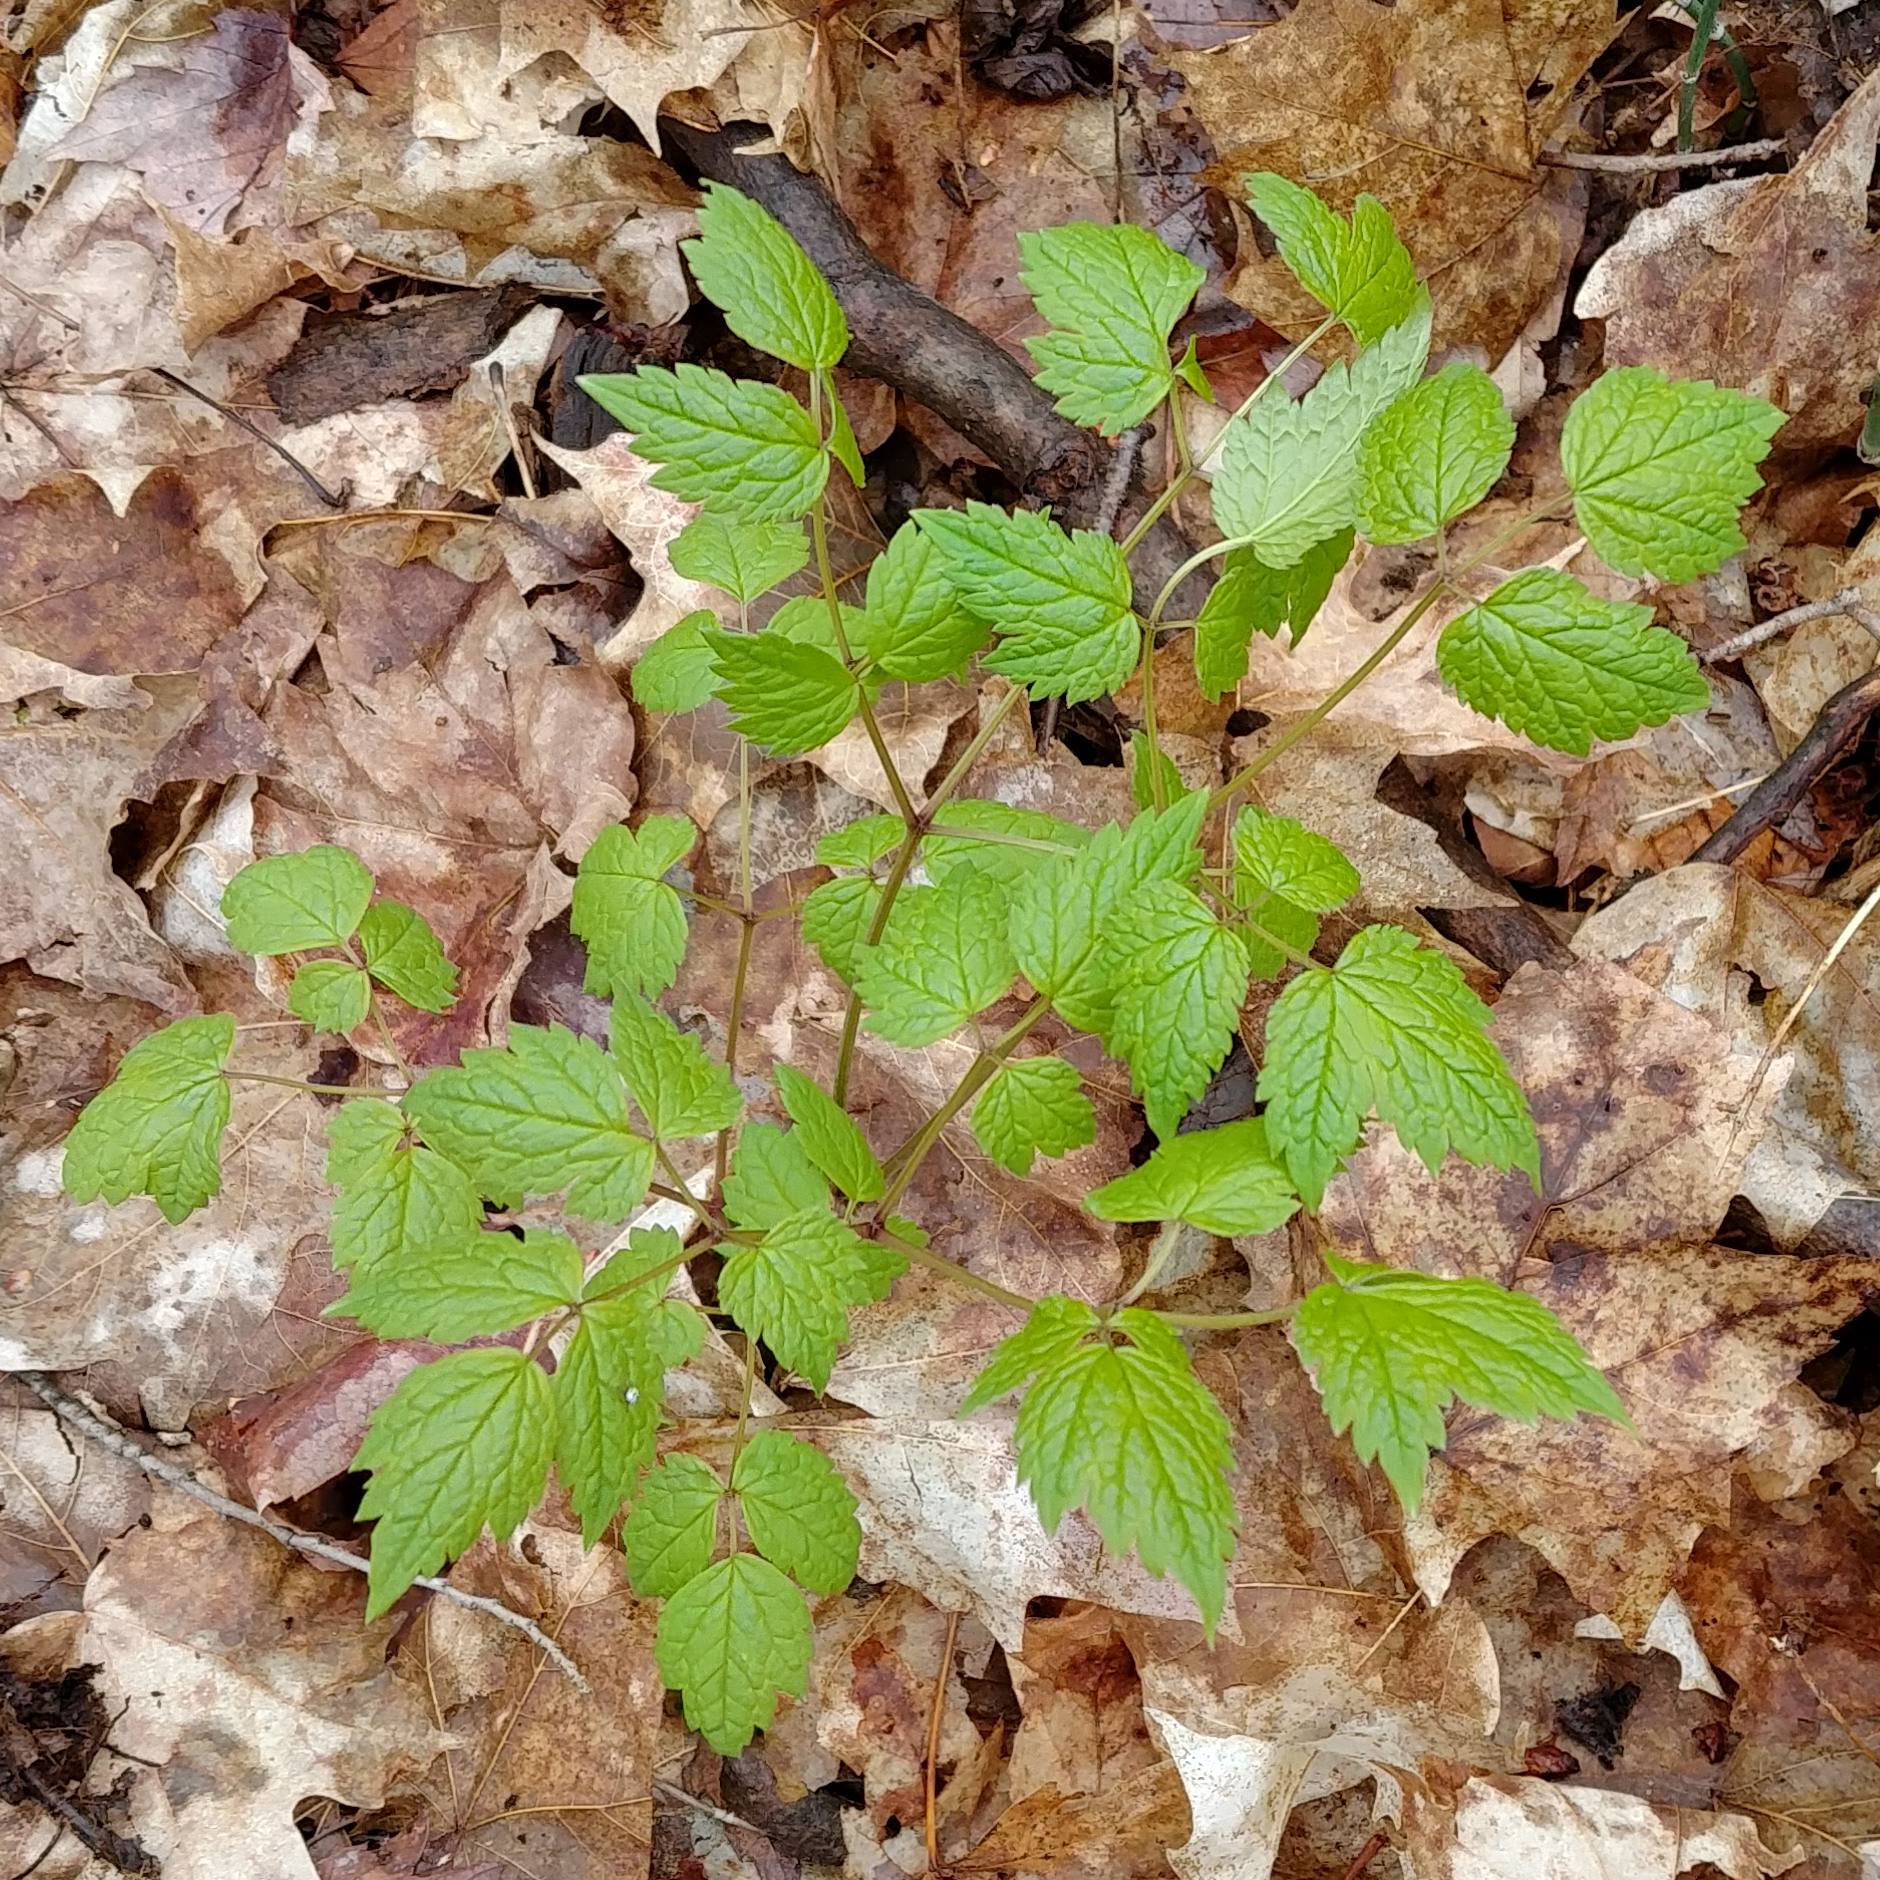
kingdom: Plantae
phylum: Tracheophyta
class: Magnoliopsida
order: Ranunculales
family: Ranunculaceae
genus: Actaea
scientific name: Actaea
